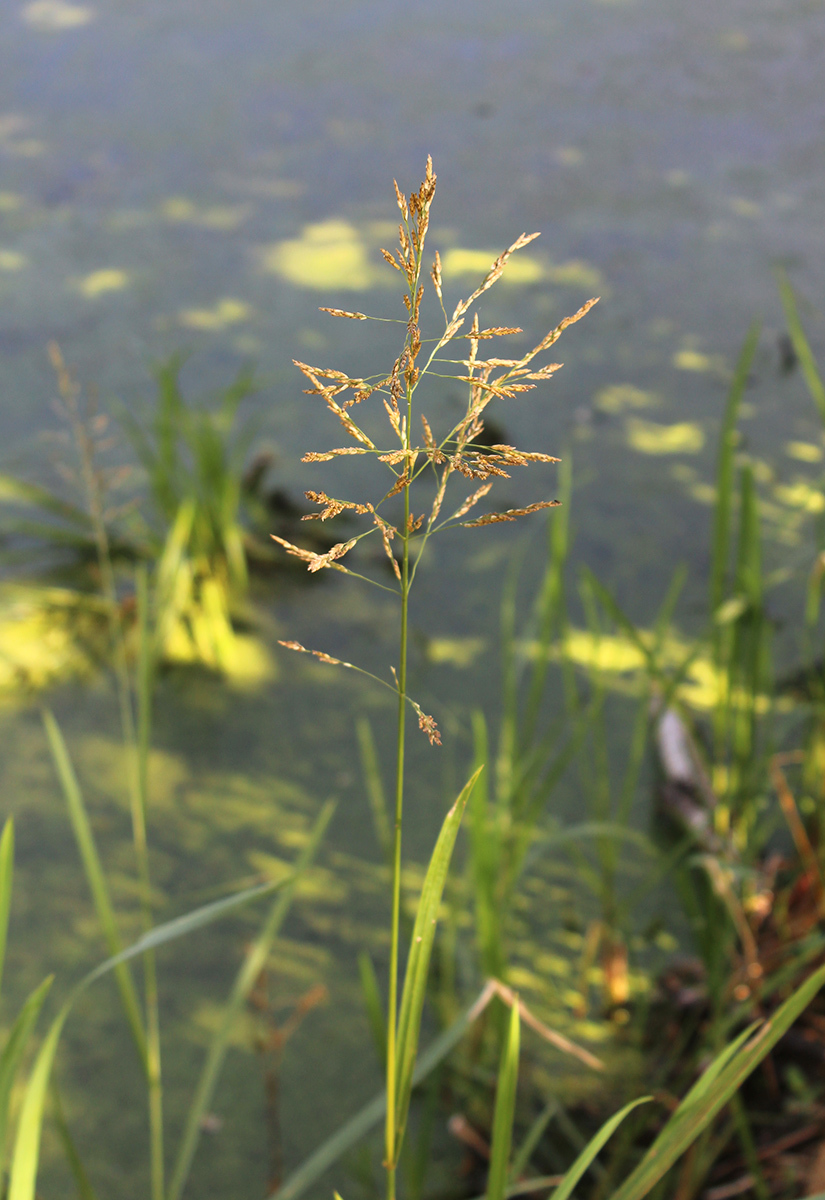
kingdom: Plantae
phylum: Tracheophyta
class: Liliopsida
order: Poales
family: Poaceae
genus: Glyceria
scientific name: Glyceria maxima
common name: Reed mannagrass
